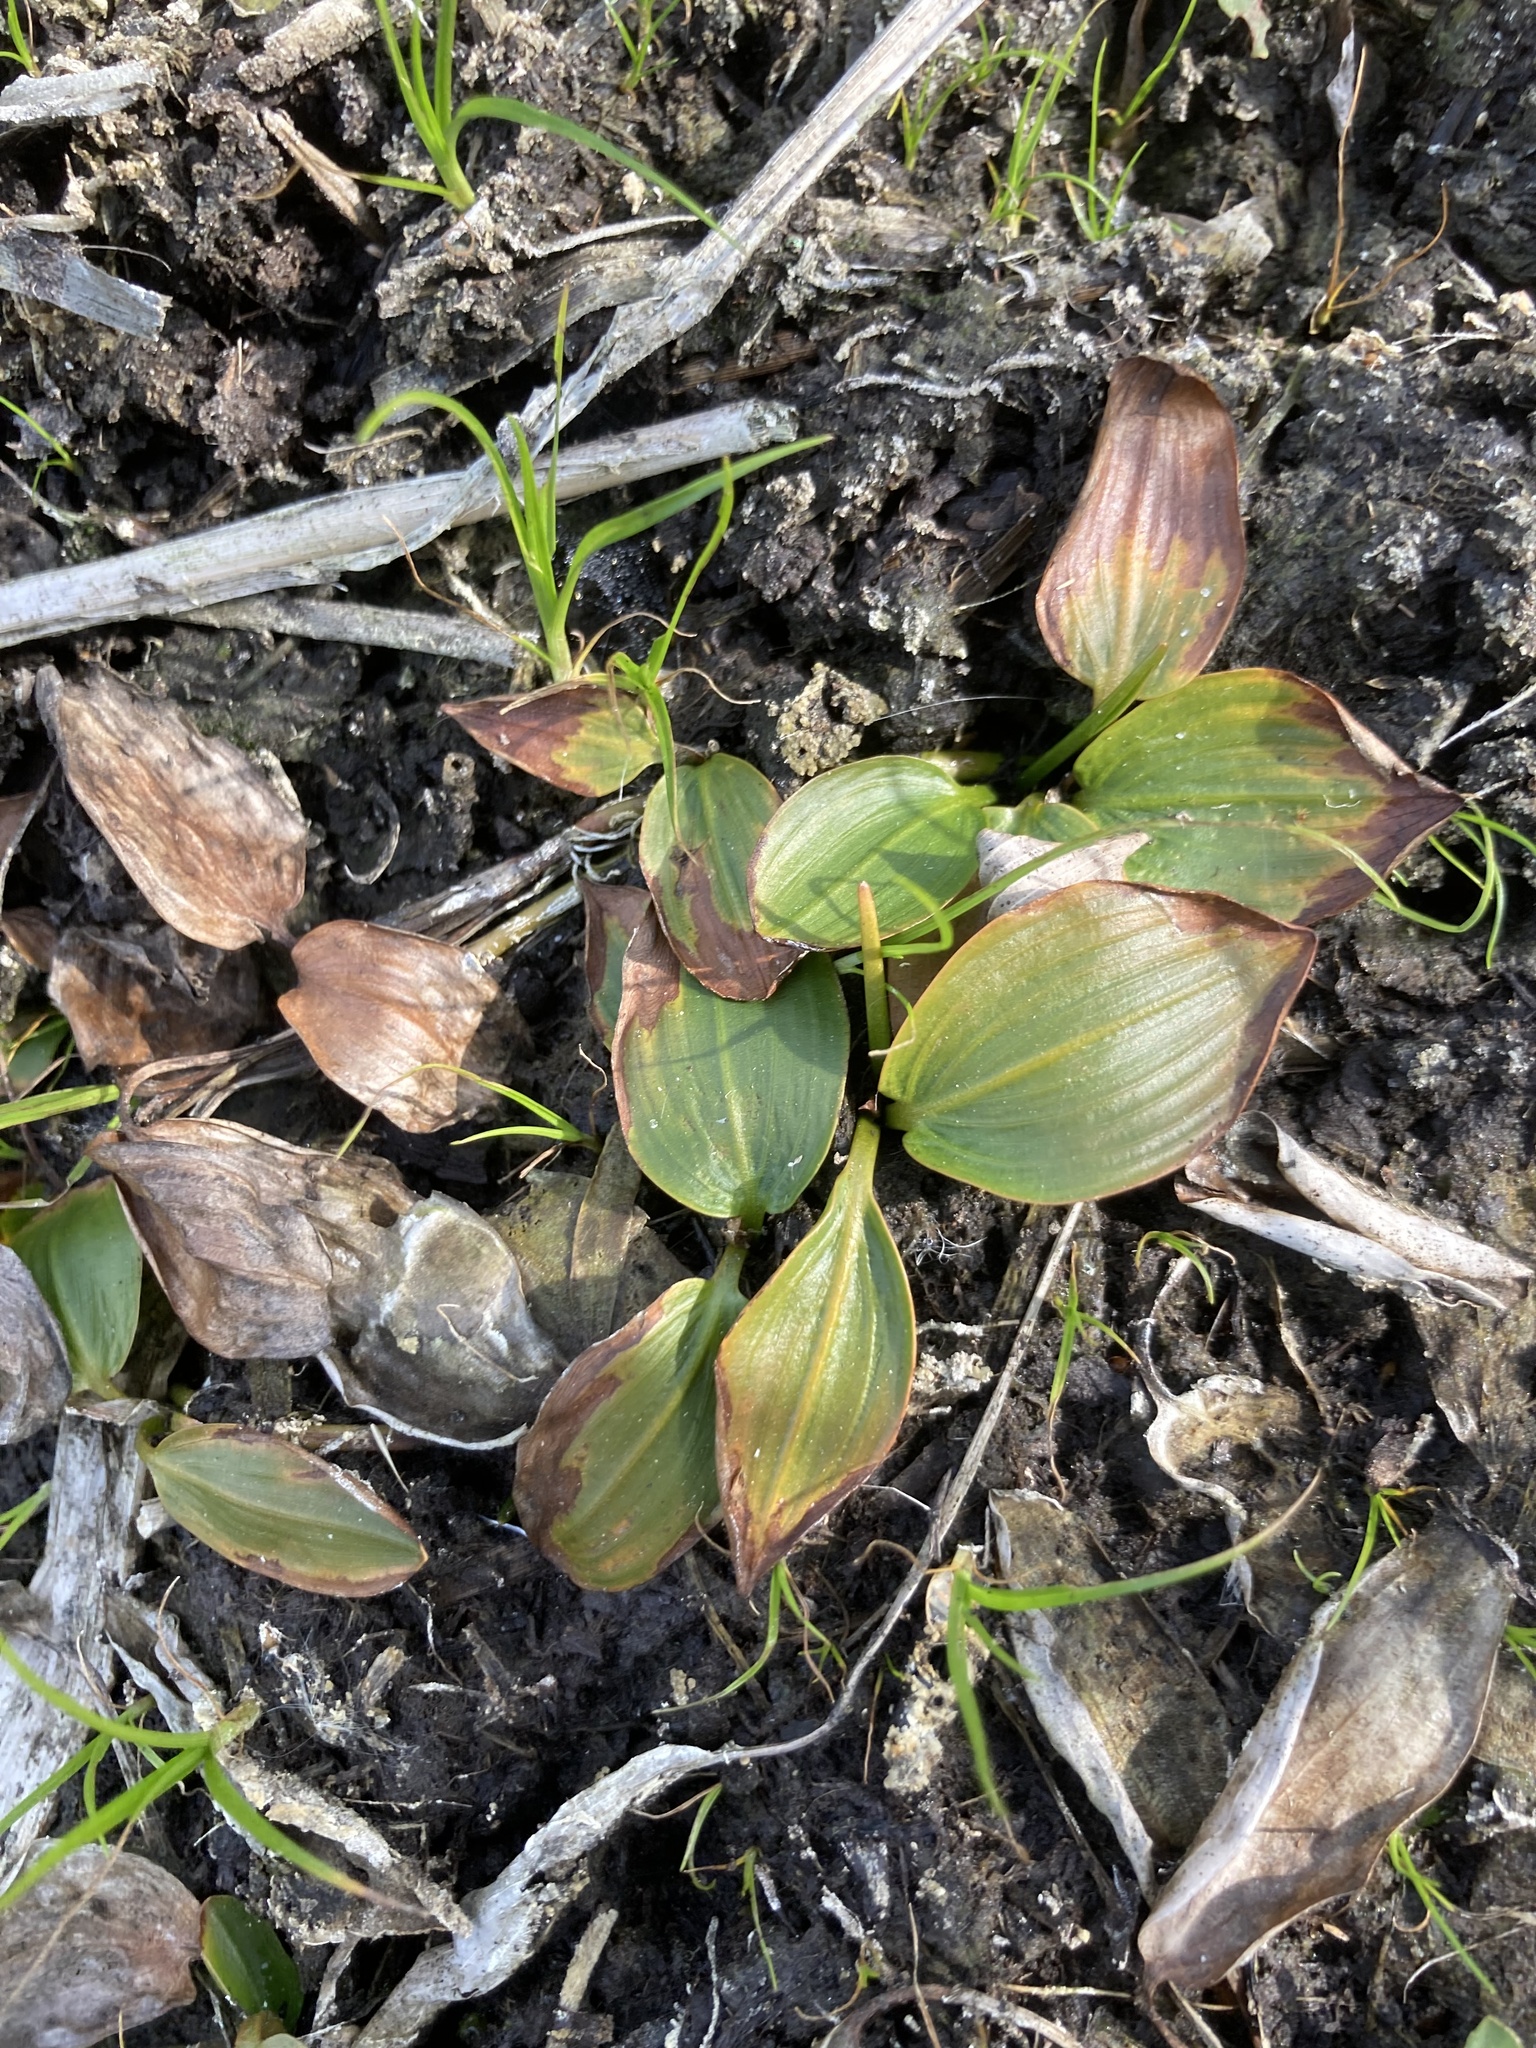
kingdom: Plantae
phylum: Tracheophyta
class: Liliopsida
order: Alismatales
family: Potamogetonaceae
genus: Potamogeton
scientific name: Potamogeton gramineus
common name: Various-leaved pondweed
